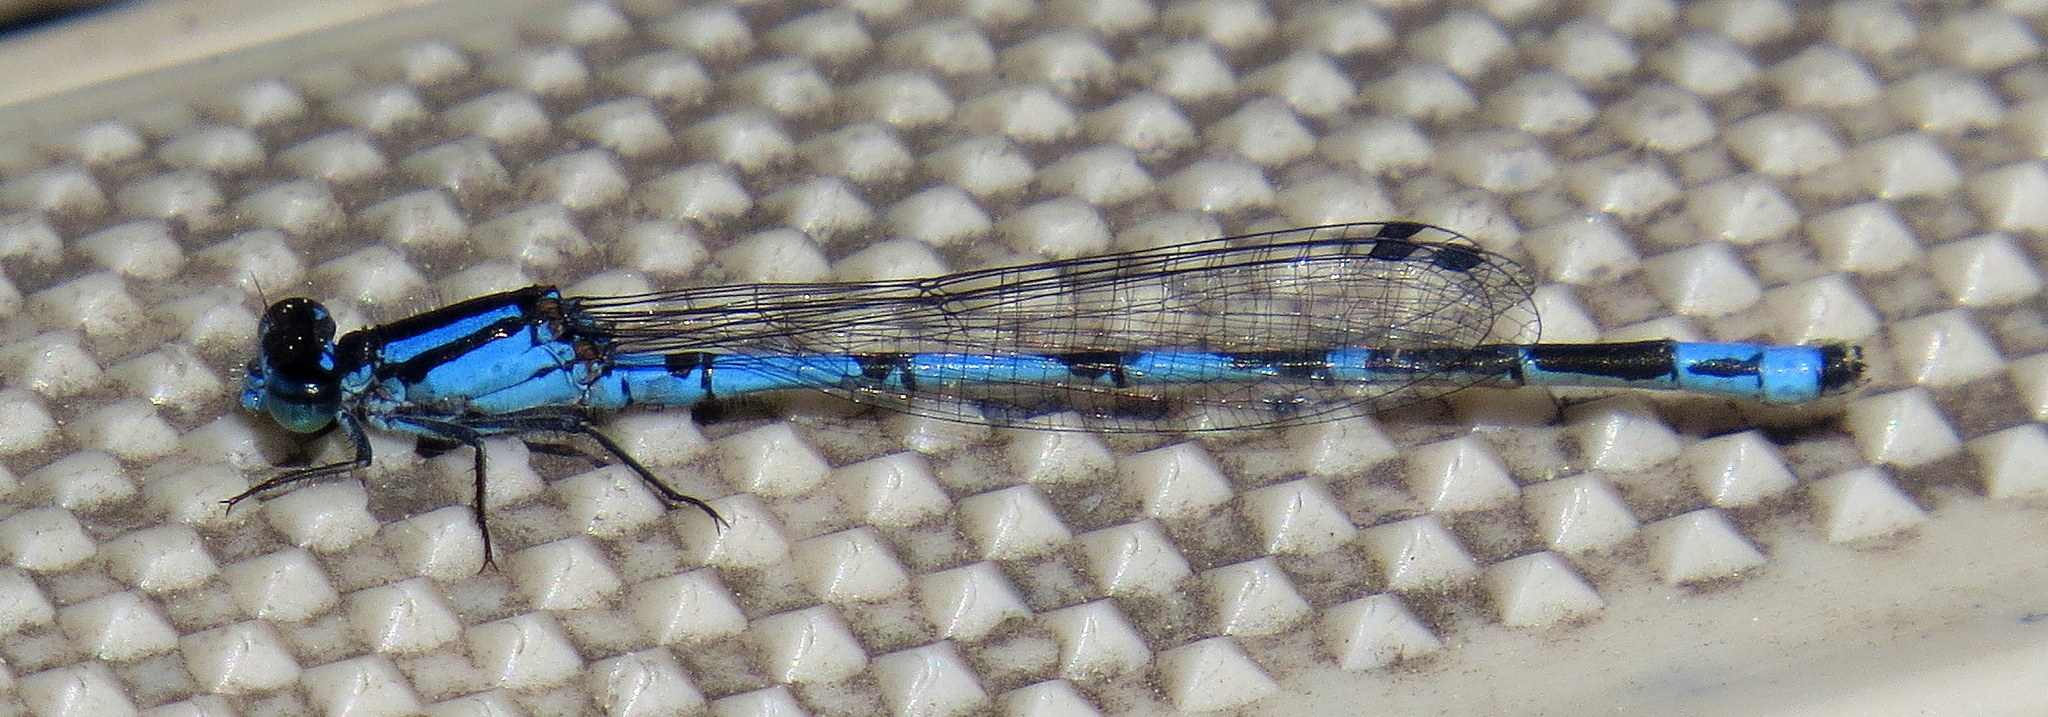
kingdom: Animalia
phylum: Arthropoda
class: Insecta
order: Odonata
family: Coenagrionidae
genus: Enallagma
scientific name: Enallagma laterale
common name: New england bluet
